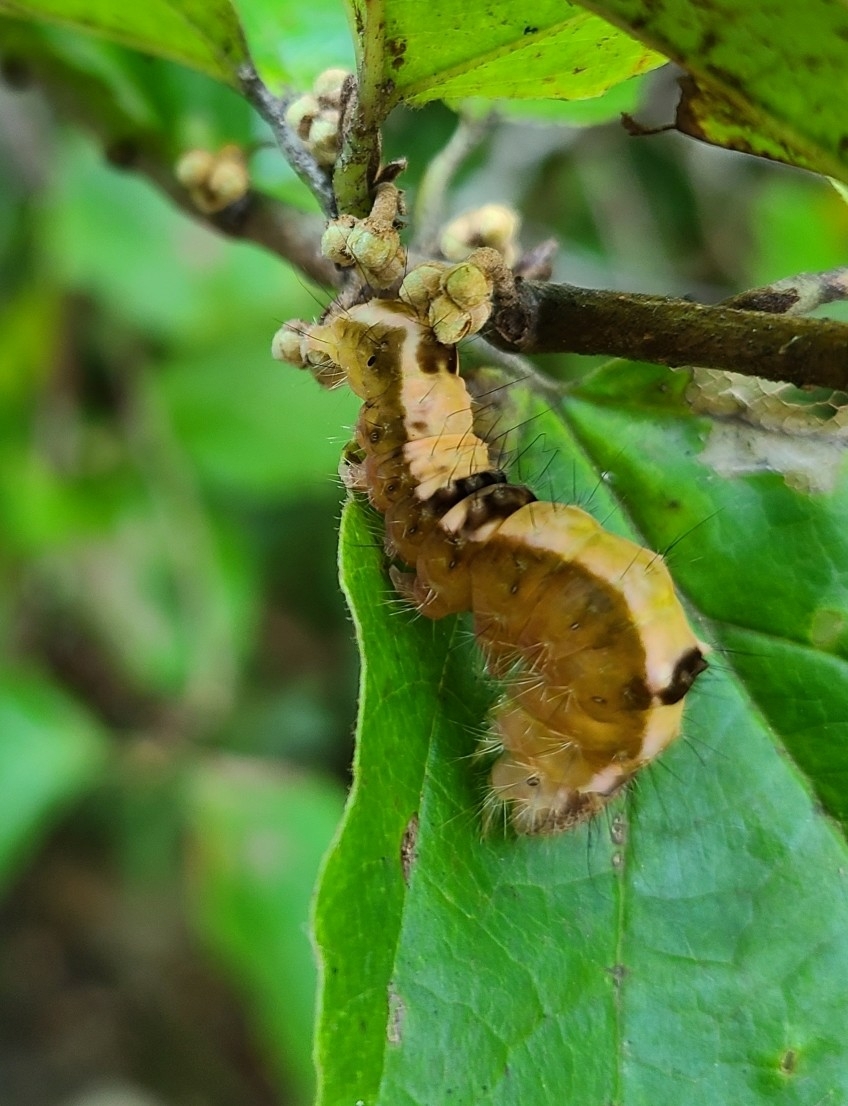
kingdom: Animalia
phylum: Arthropoda
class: Insecta
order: Lepidoptera
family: Noctuidae
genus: Acronicta
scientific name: Acronicta hamamelis
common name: Witch hazel dagger
